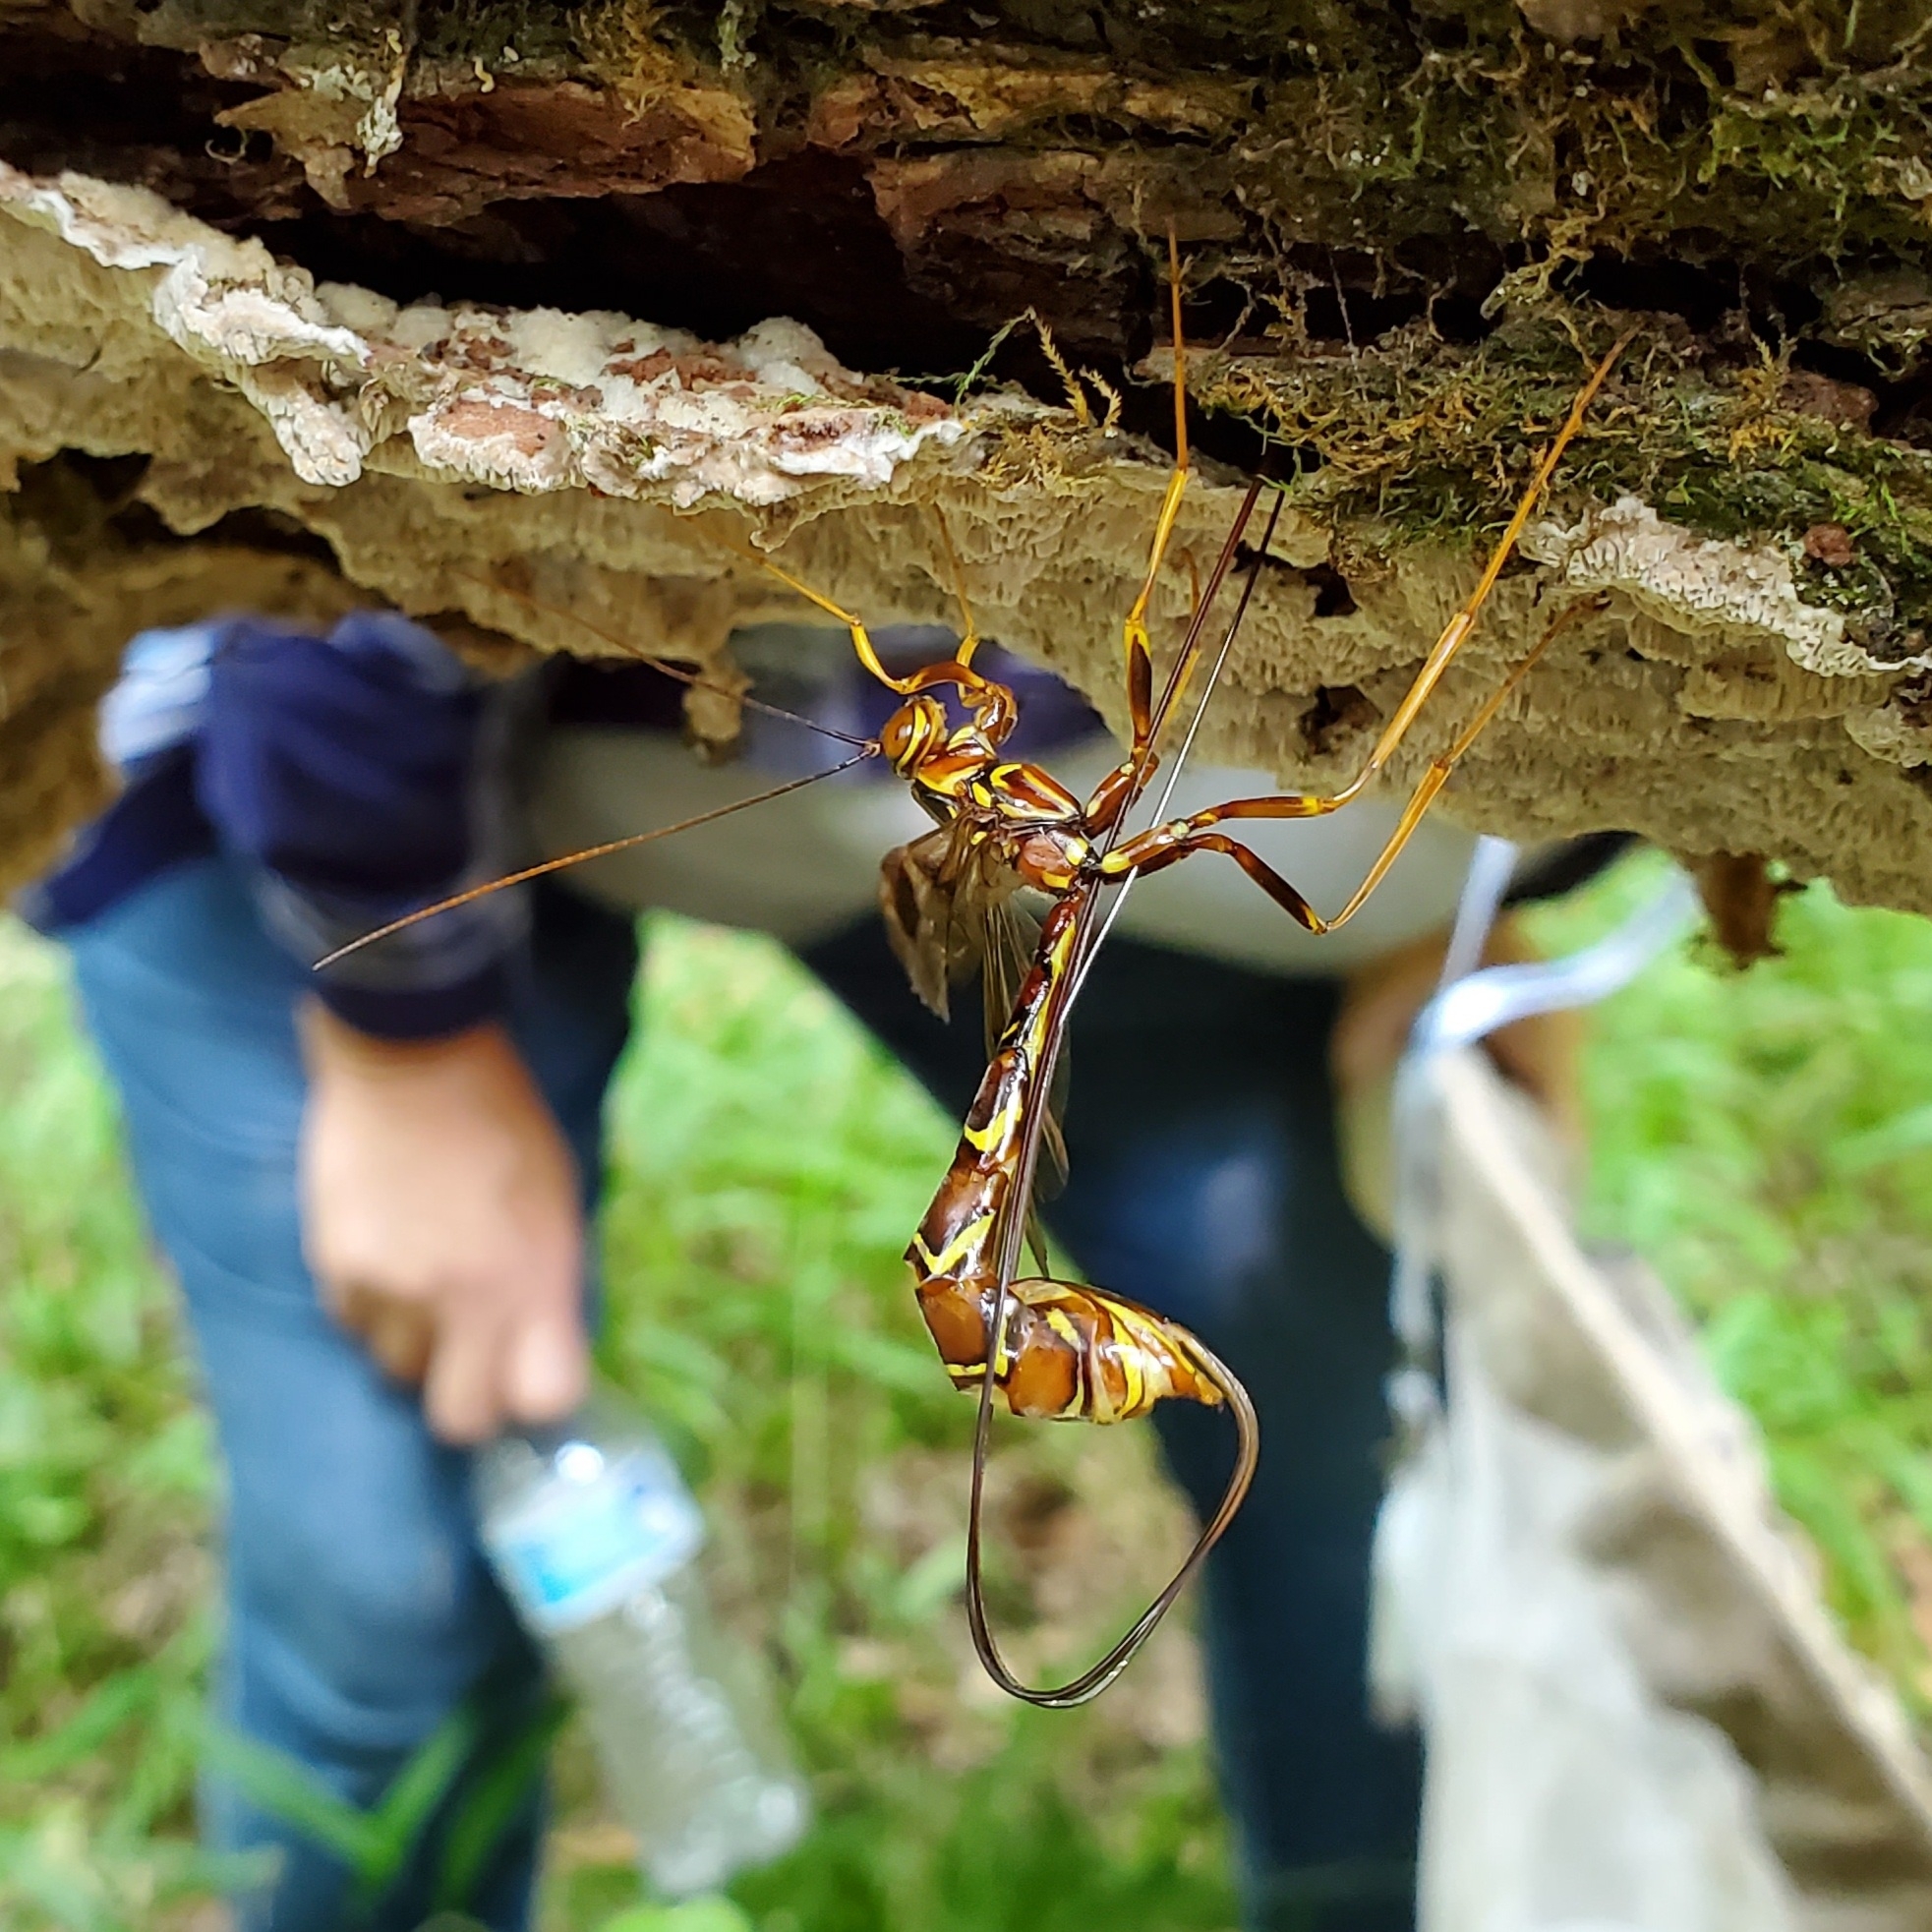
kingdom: Animalia
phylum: Arthropoda
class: Insecta
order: Hymenoptera
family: Ichneumonidae
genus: Megarhyssa
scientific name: Megarhyssa macrura
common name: Long-tailed giant ichneumonid wasp
